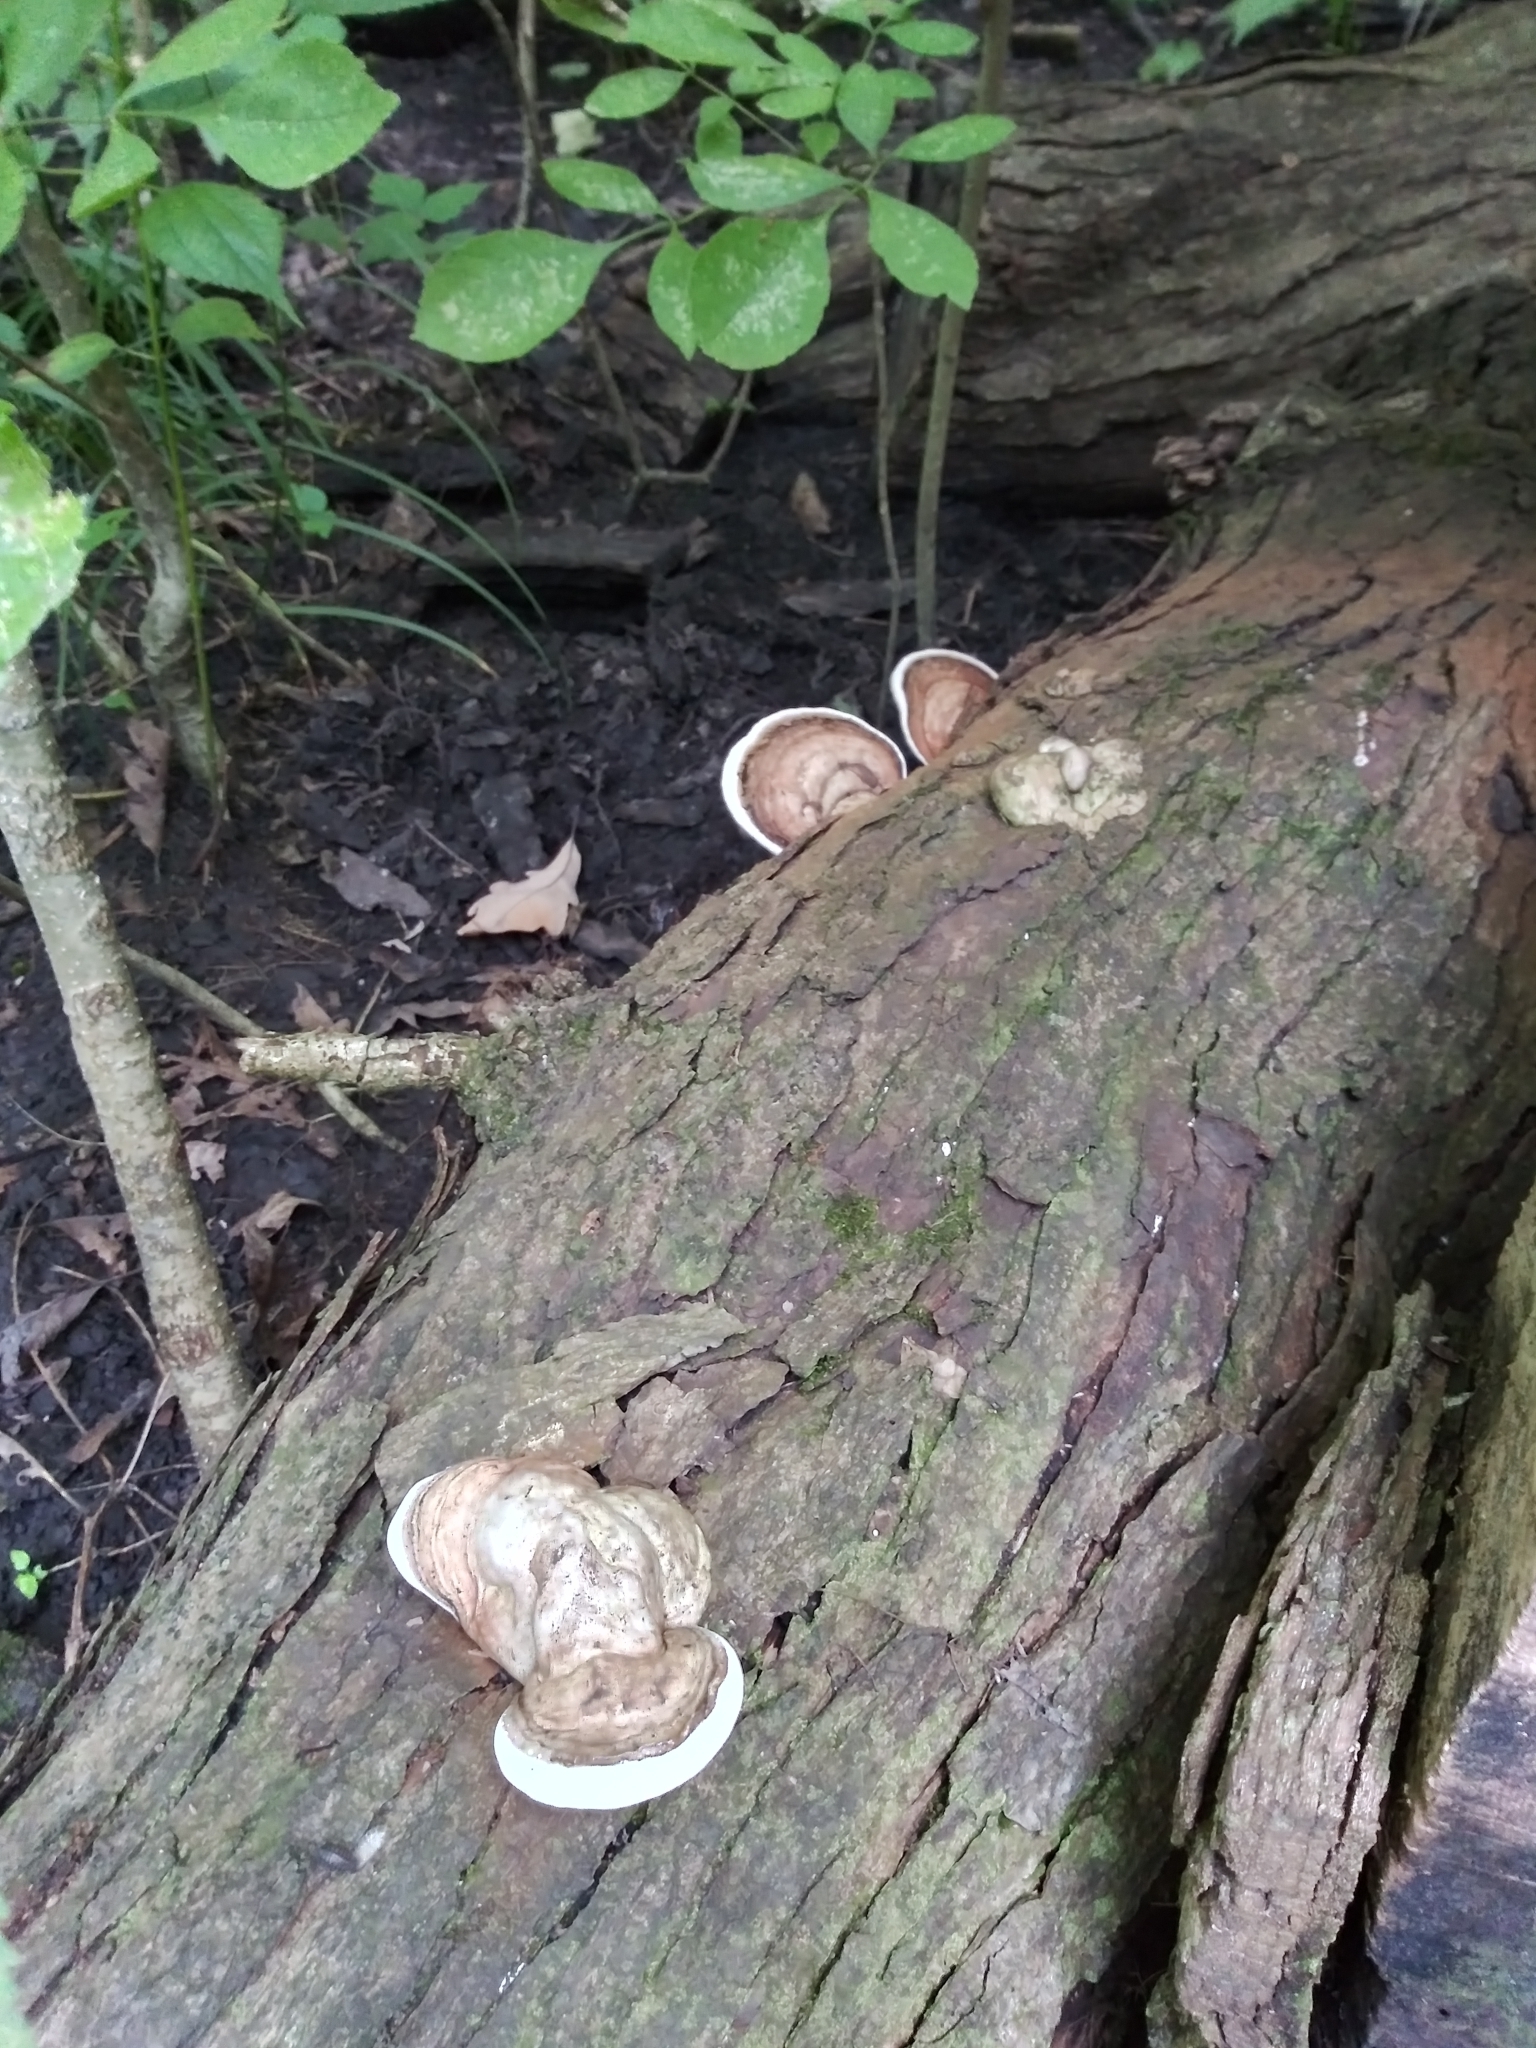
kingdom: Fungi
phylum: Basidiomycota
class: Agaricomycetes
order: Polyporales
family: Polyporaceae
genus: Ganoderma
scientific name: Ganoderma applanatum
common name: Artist's bracket
